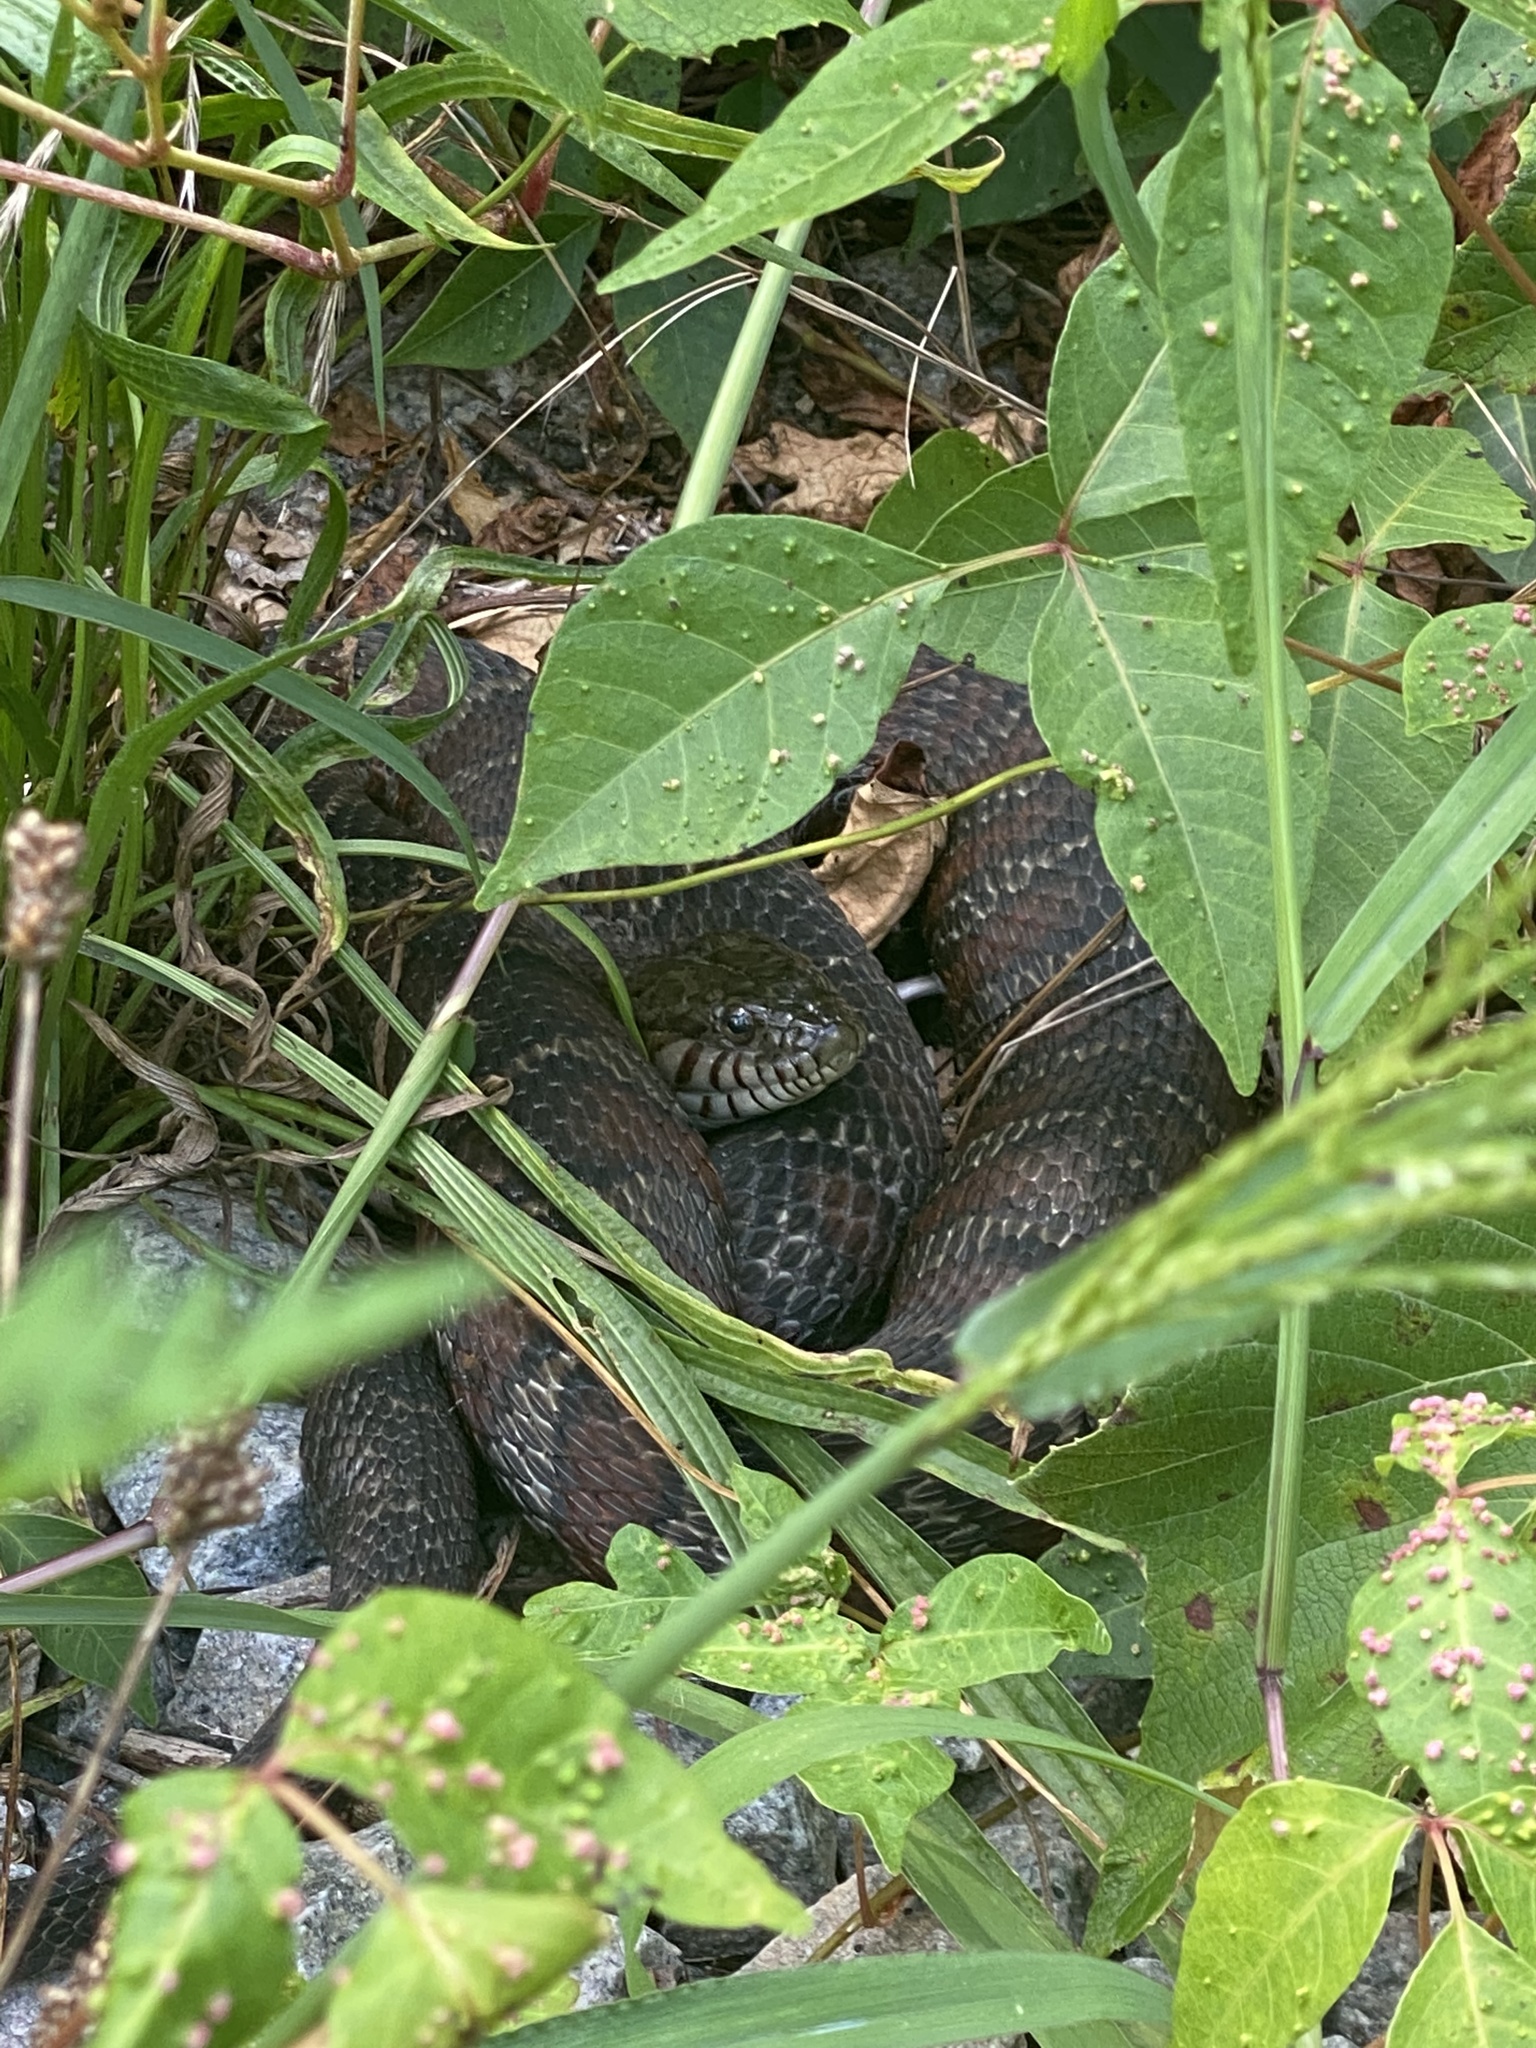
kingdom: Animalia
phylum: Chordata
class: Squamata
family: Colubridae
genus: Nerodia
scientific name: Nerodia sipedon
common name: Northern water snake
